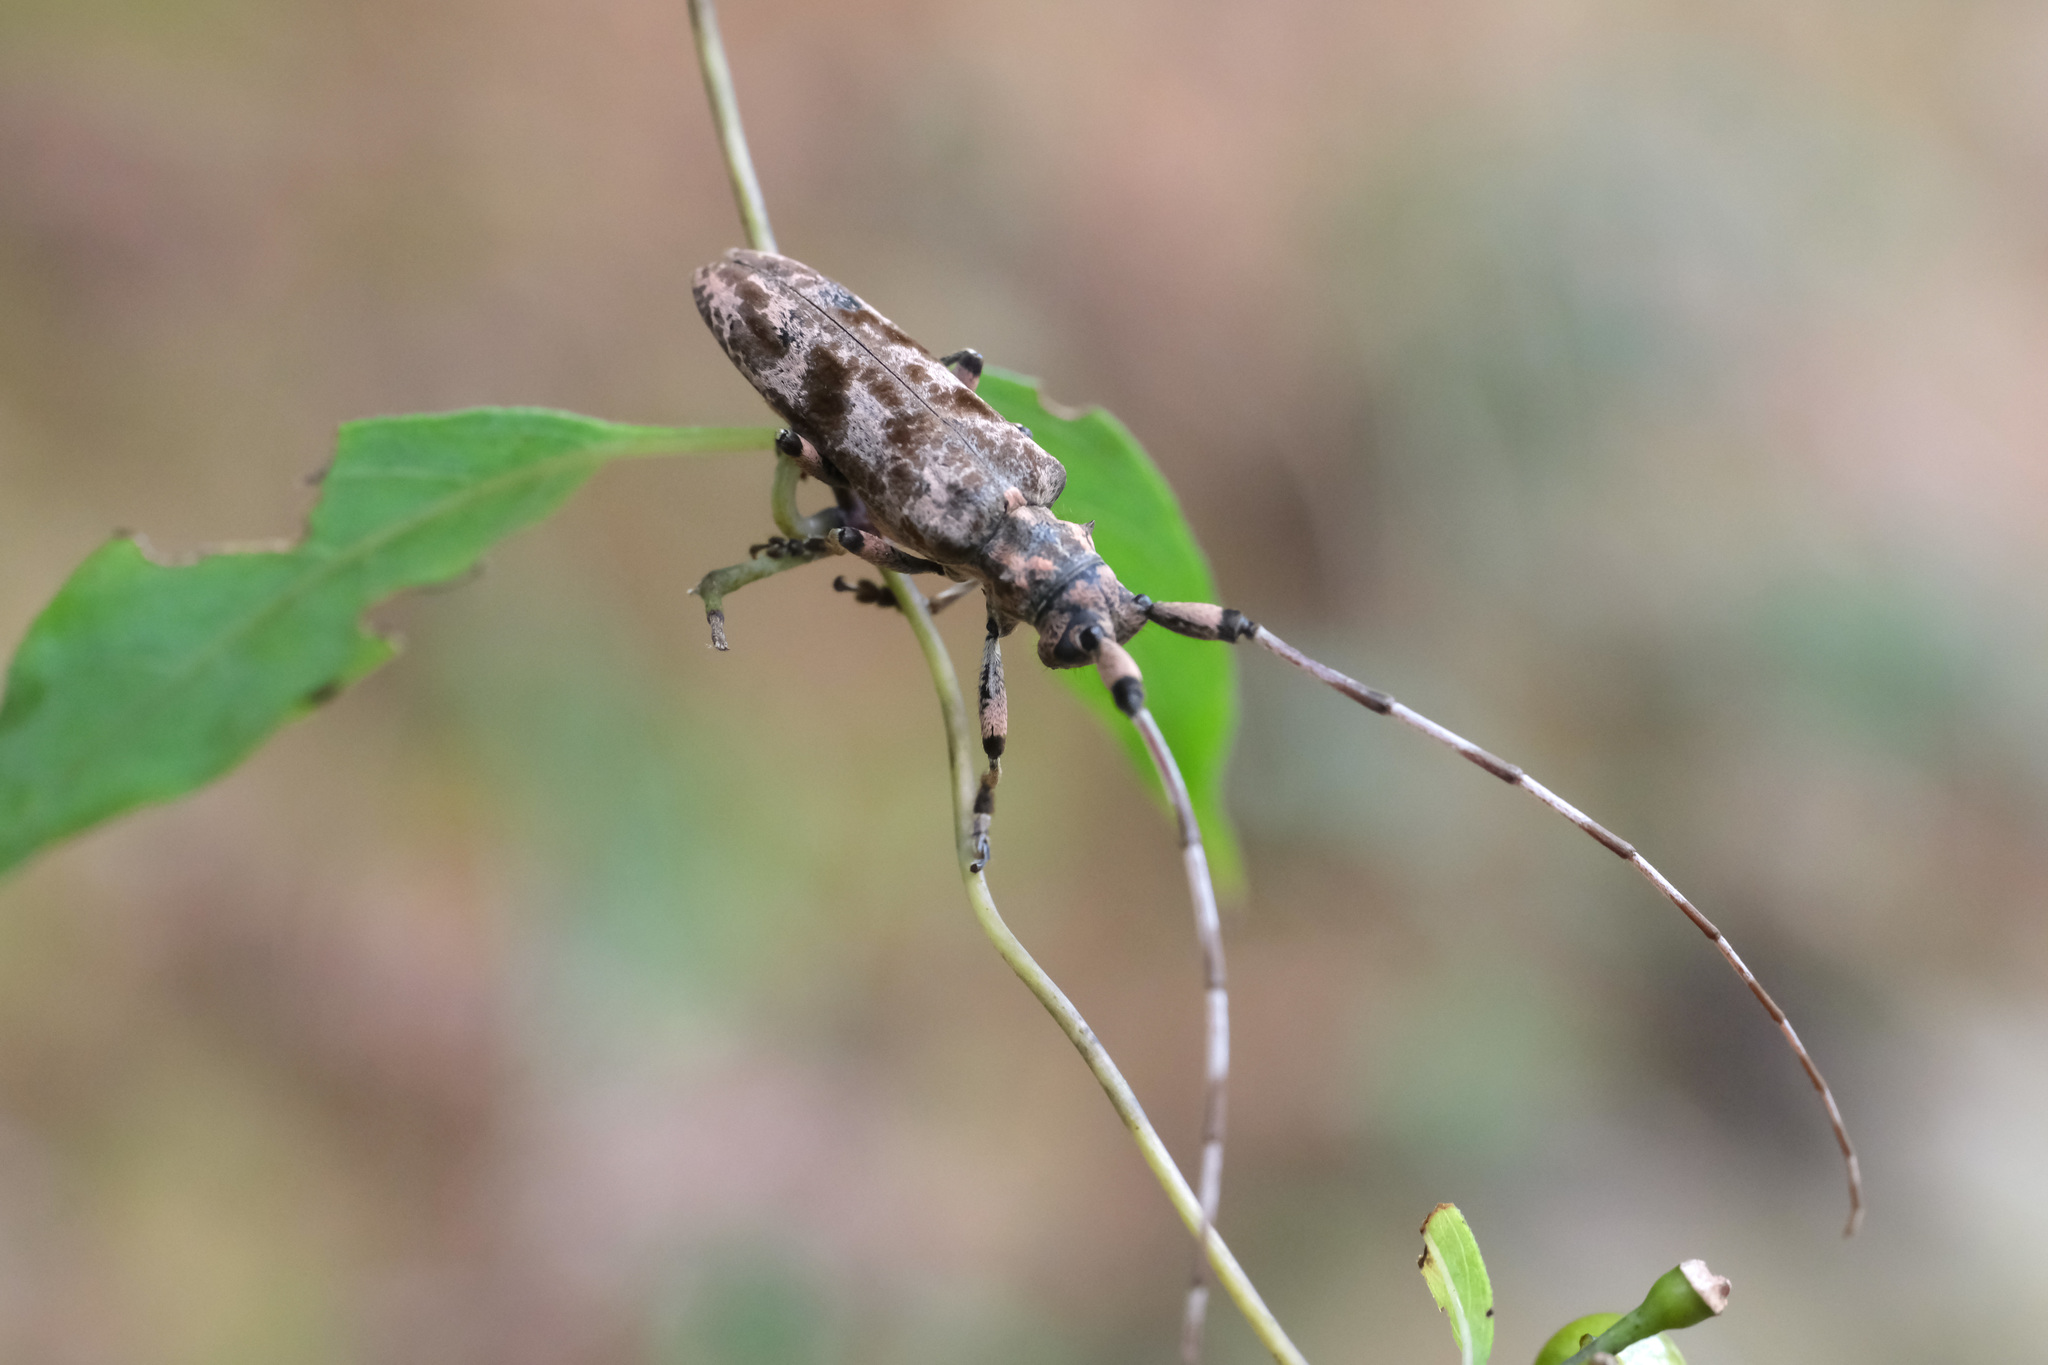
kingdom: Animalia
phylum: Arthropoda
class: Insecta
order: Coleoptera
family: Cerambycidae
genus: Uraecha
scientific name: Uraecha chinensis
